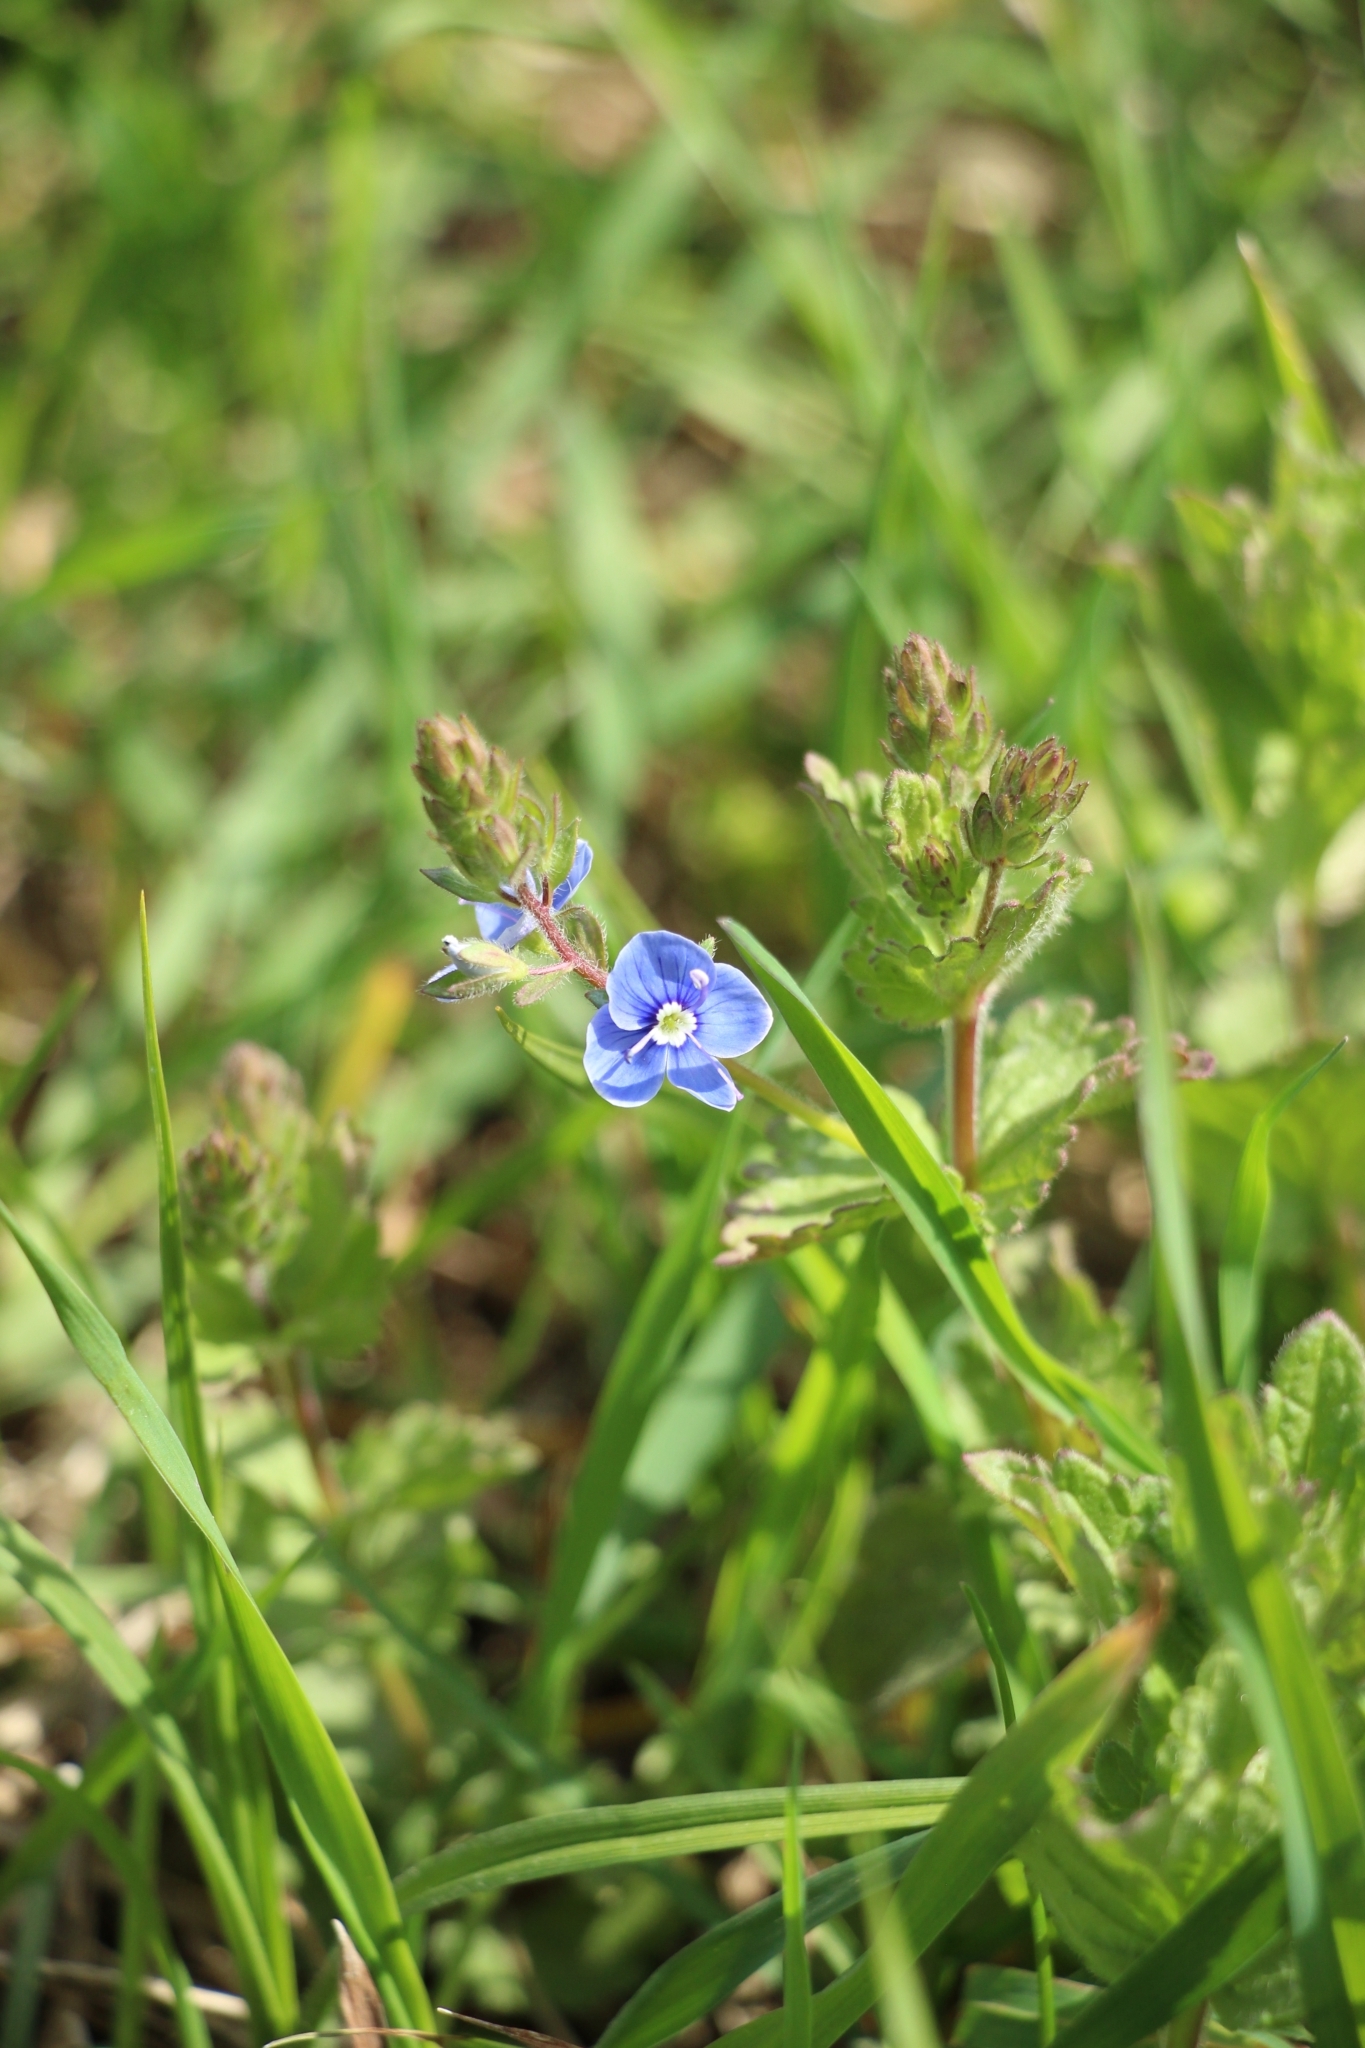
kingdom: Plantae
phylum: Tracheophyta
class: Magnoliopsida
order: Lamiales
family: Plantaginaceae
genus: Veronica
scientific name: Veronica chamaedrys
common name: Germander speedwell
